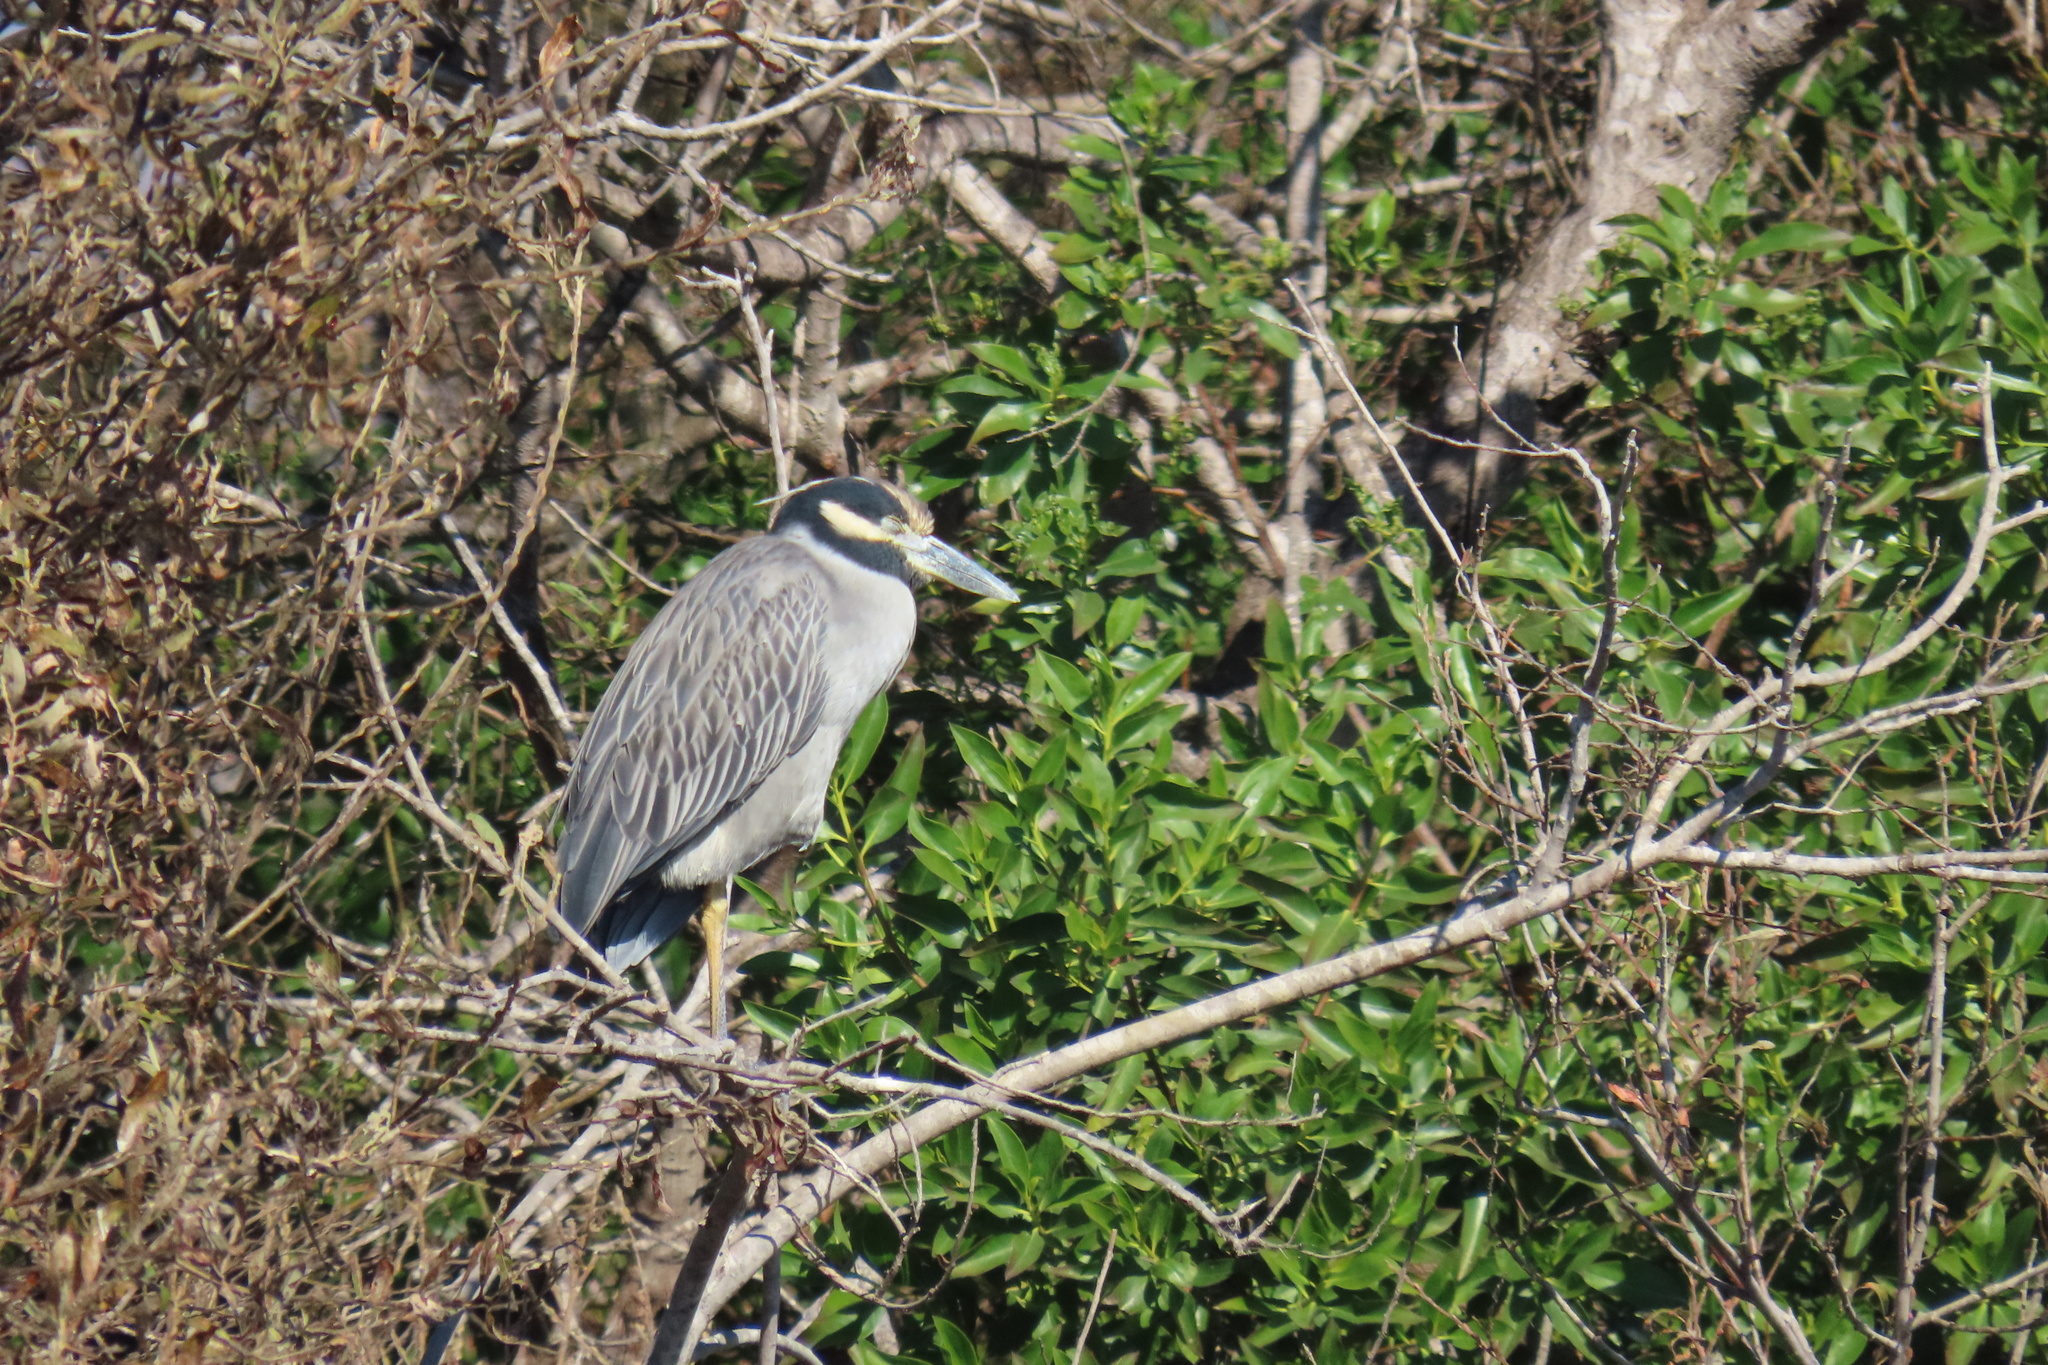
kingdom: Animalia
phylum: Chordata
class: Aves
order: Pelecaniformes
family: Ardeidae
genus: Nyctanassa
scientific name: Nyctanassa violacea
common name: Yellow-crowned night heron
